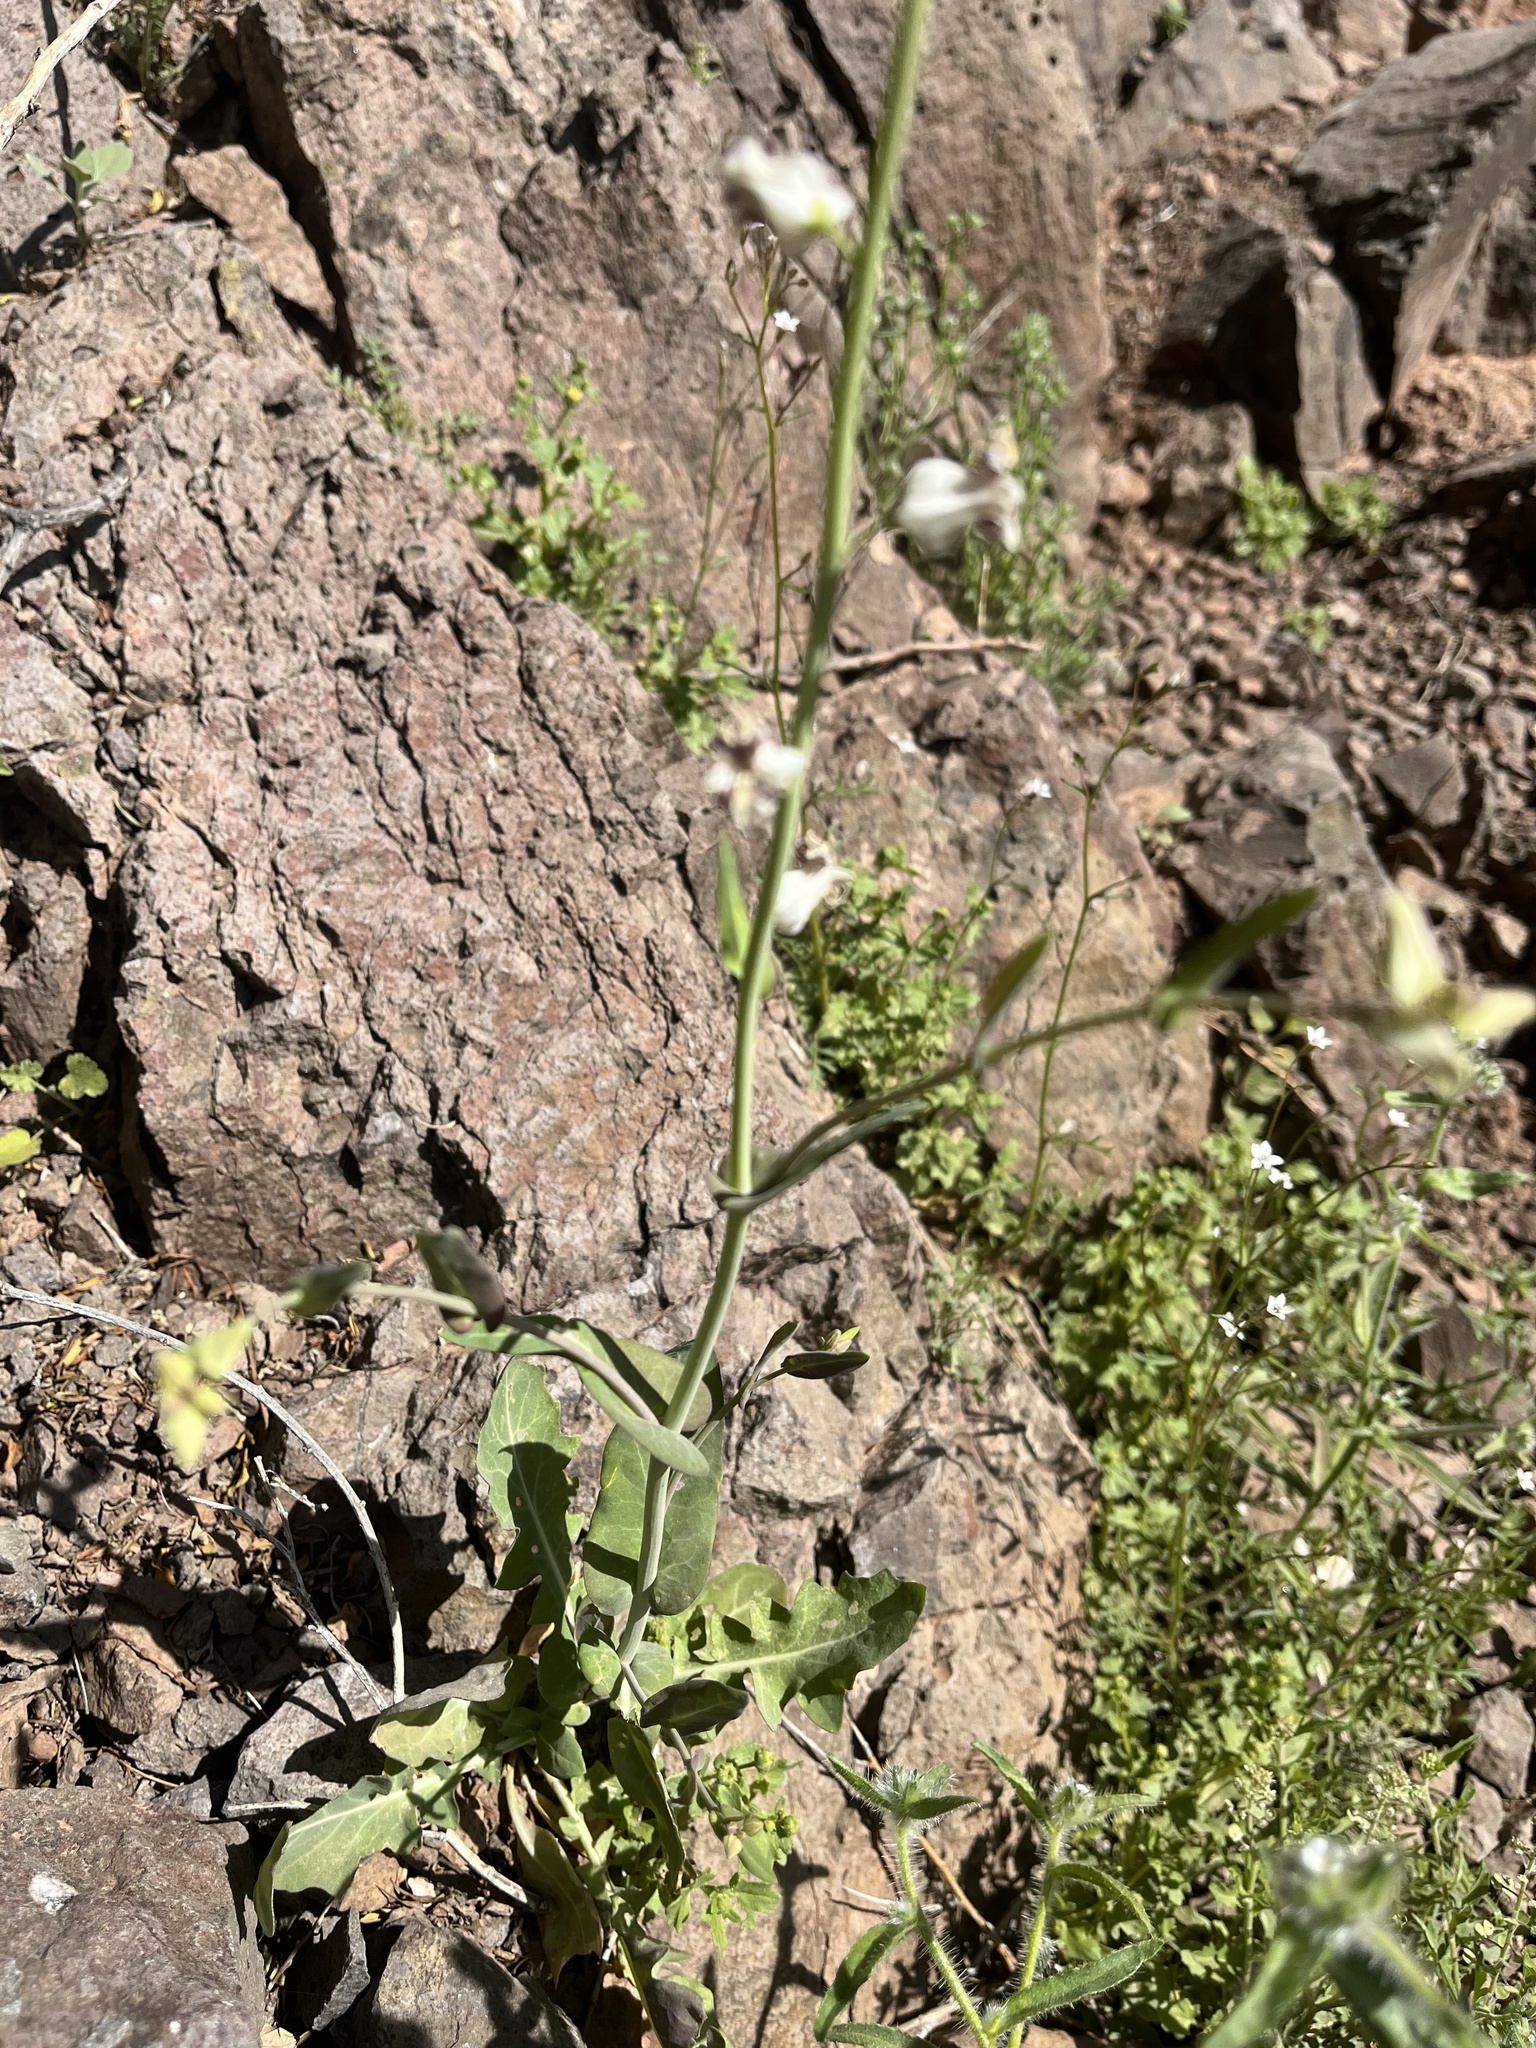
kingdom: Plantae
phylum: Tracheophyta
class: Magnoliopsida
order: Brassicales
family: Brassicaceae
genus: Streptanthus
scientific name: Streptanthus carinatus
